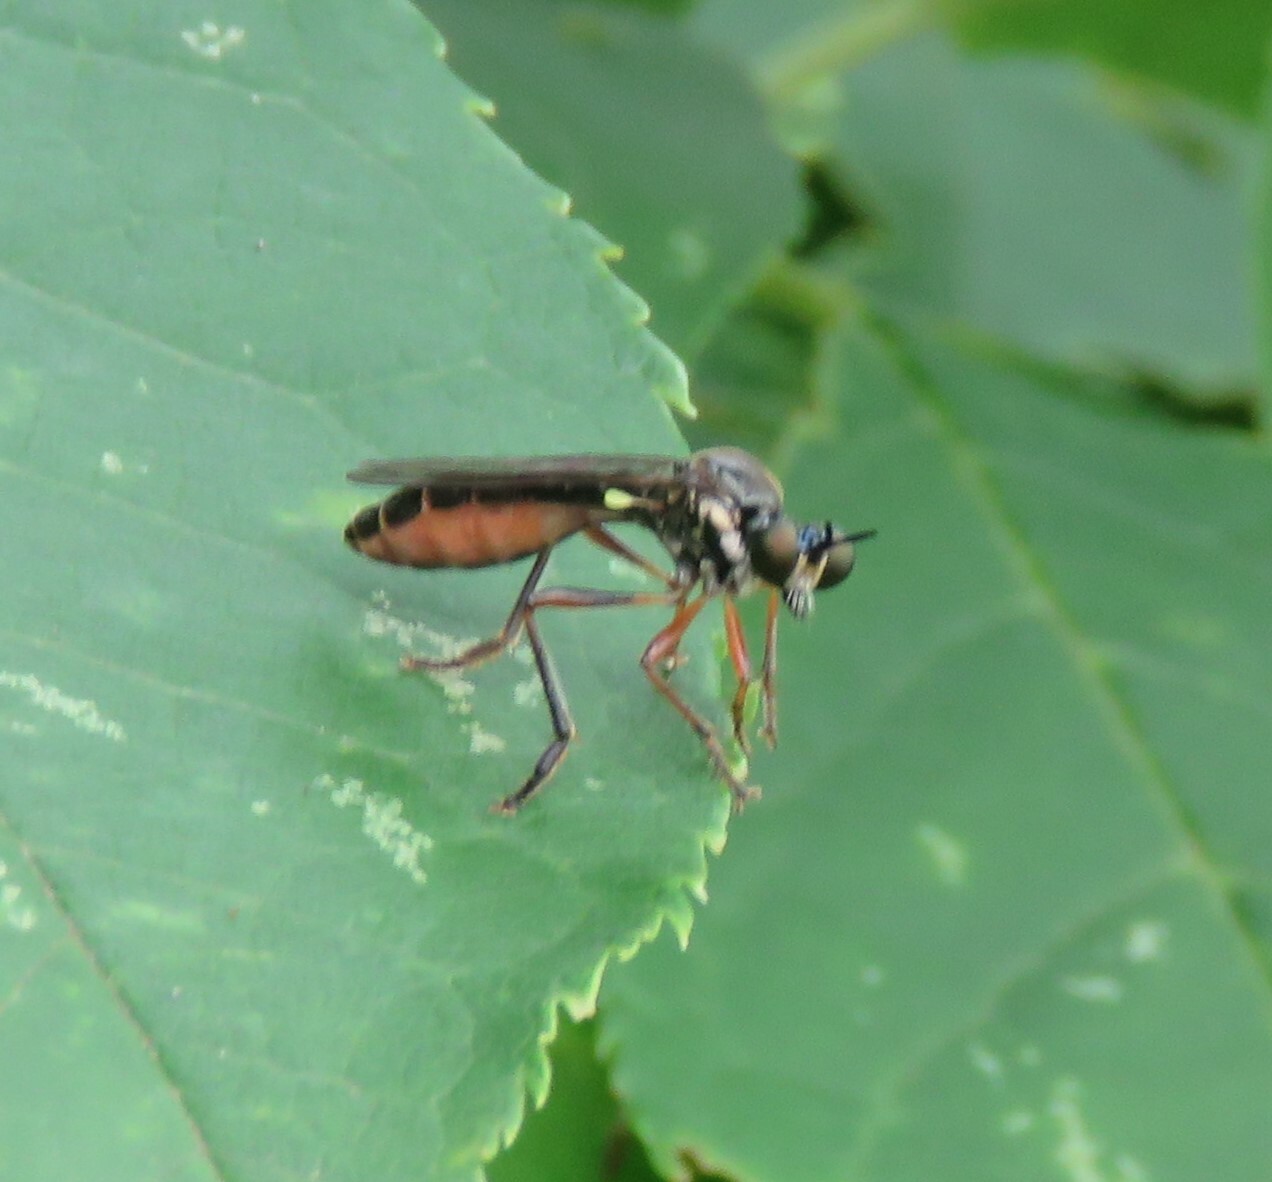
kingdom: Animalia
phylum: Arthropoda
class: Insecta
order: Diptera
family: Asilidae
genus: Dioctria
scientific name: Dioctria hyalipennis
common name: Stripe-legged robberfly
